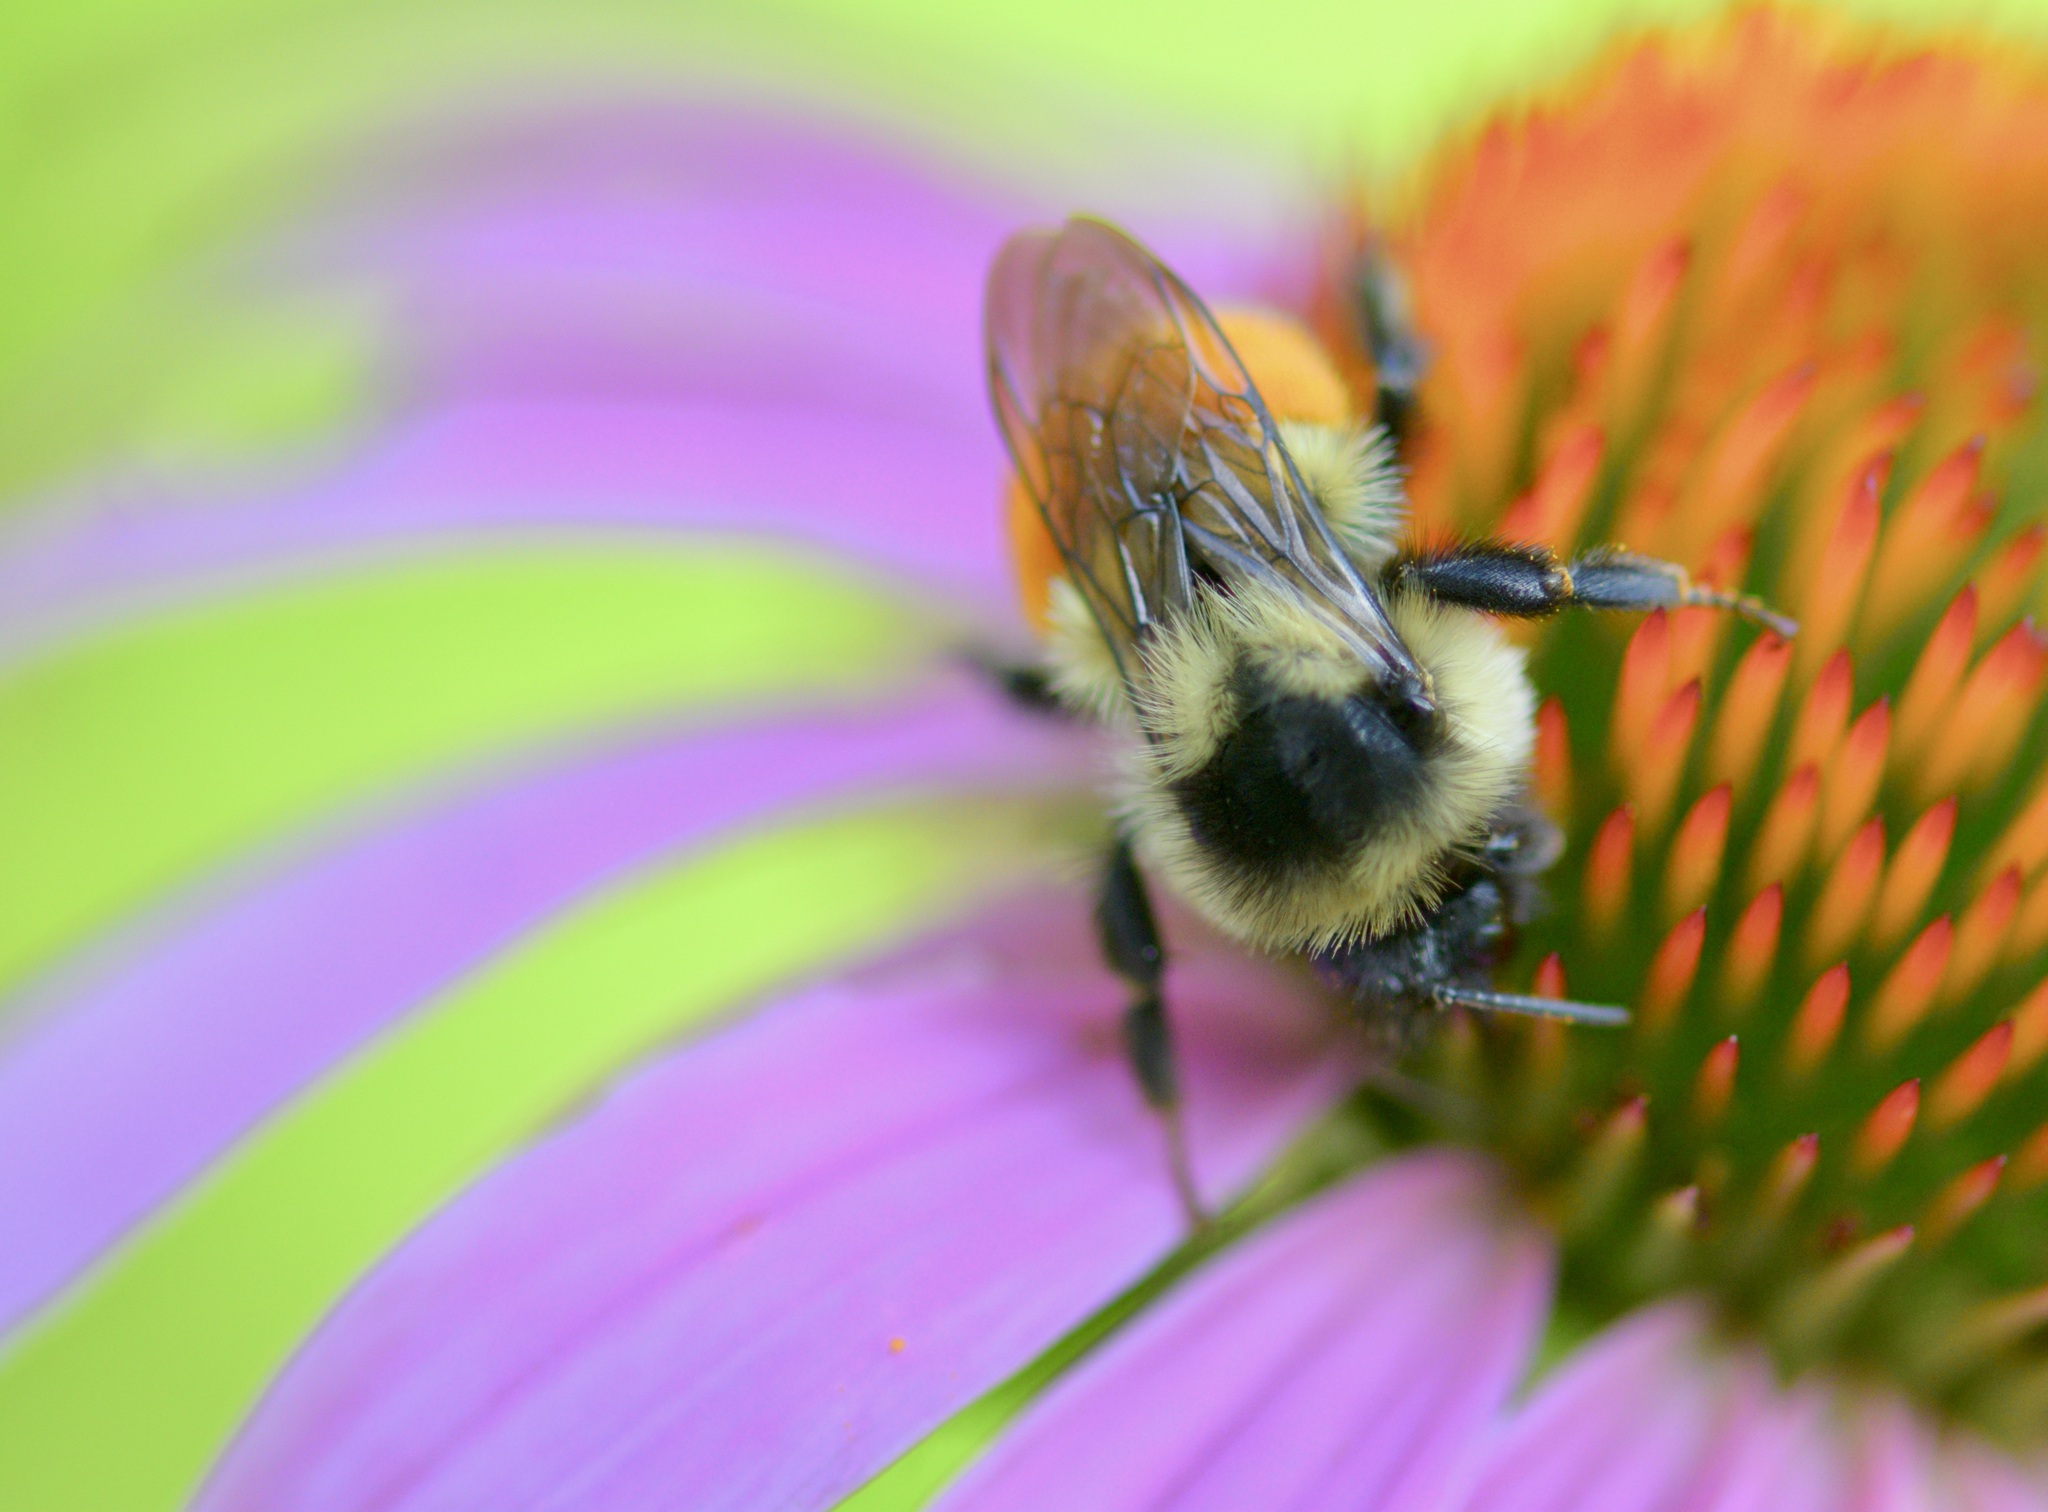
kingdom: Animalia
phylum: Arthropoda
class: Insecta
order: Hymenoptera
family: Apidae
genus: Bombus
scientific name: Bombus ternarius
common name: Tri-colored bumble bee
